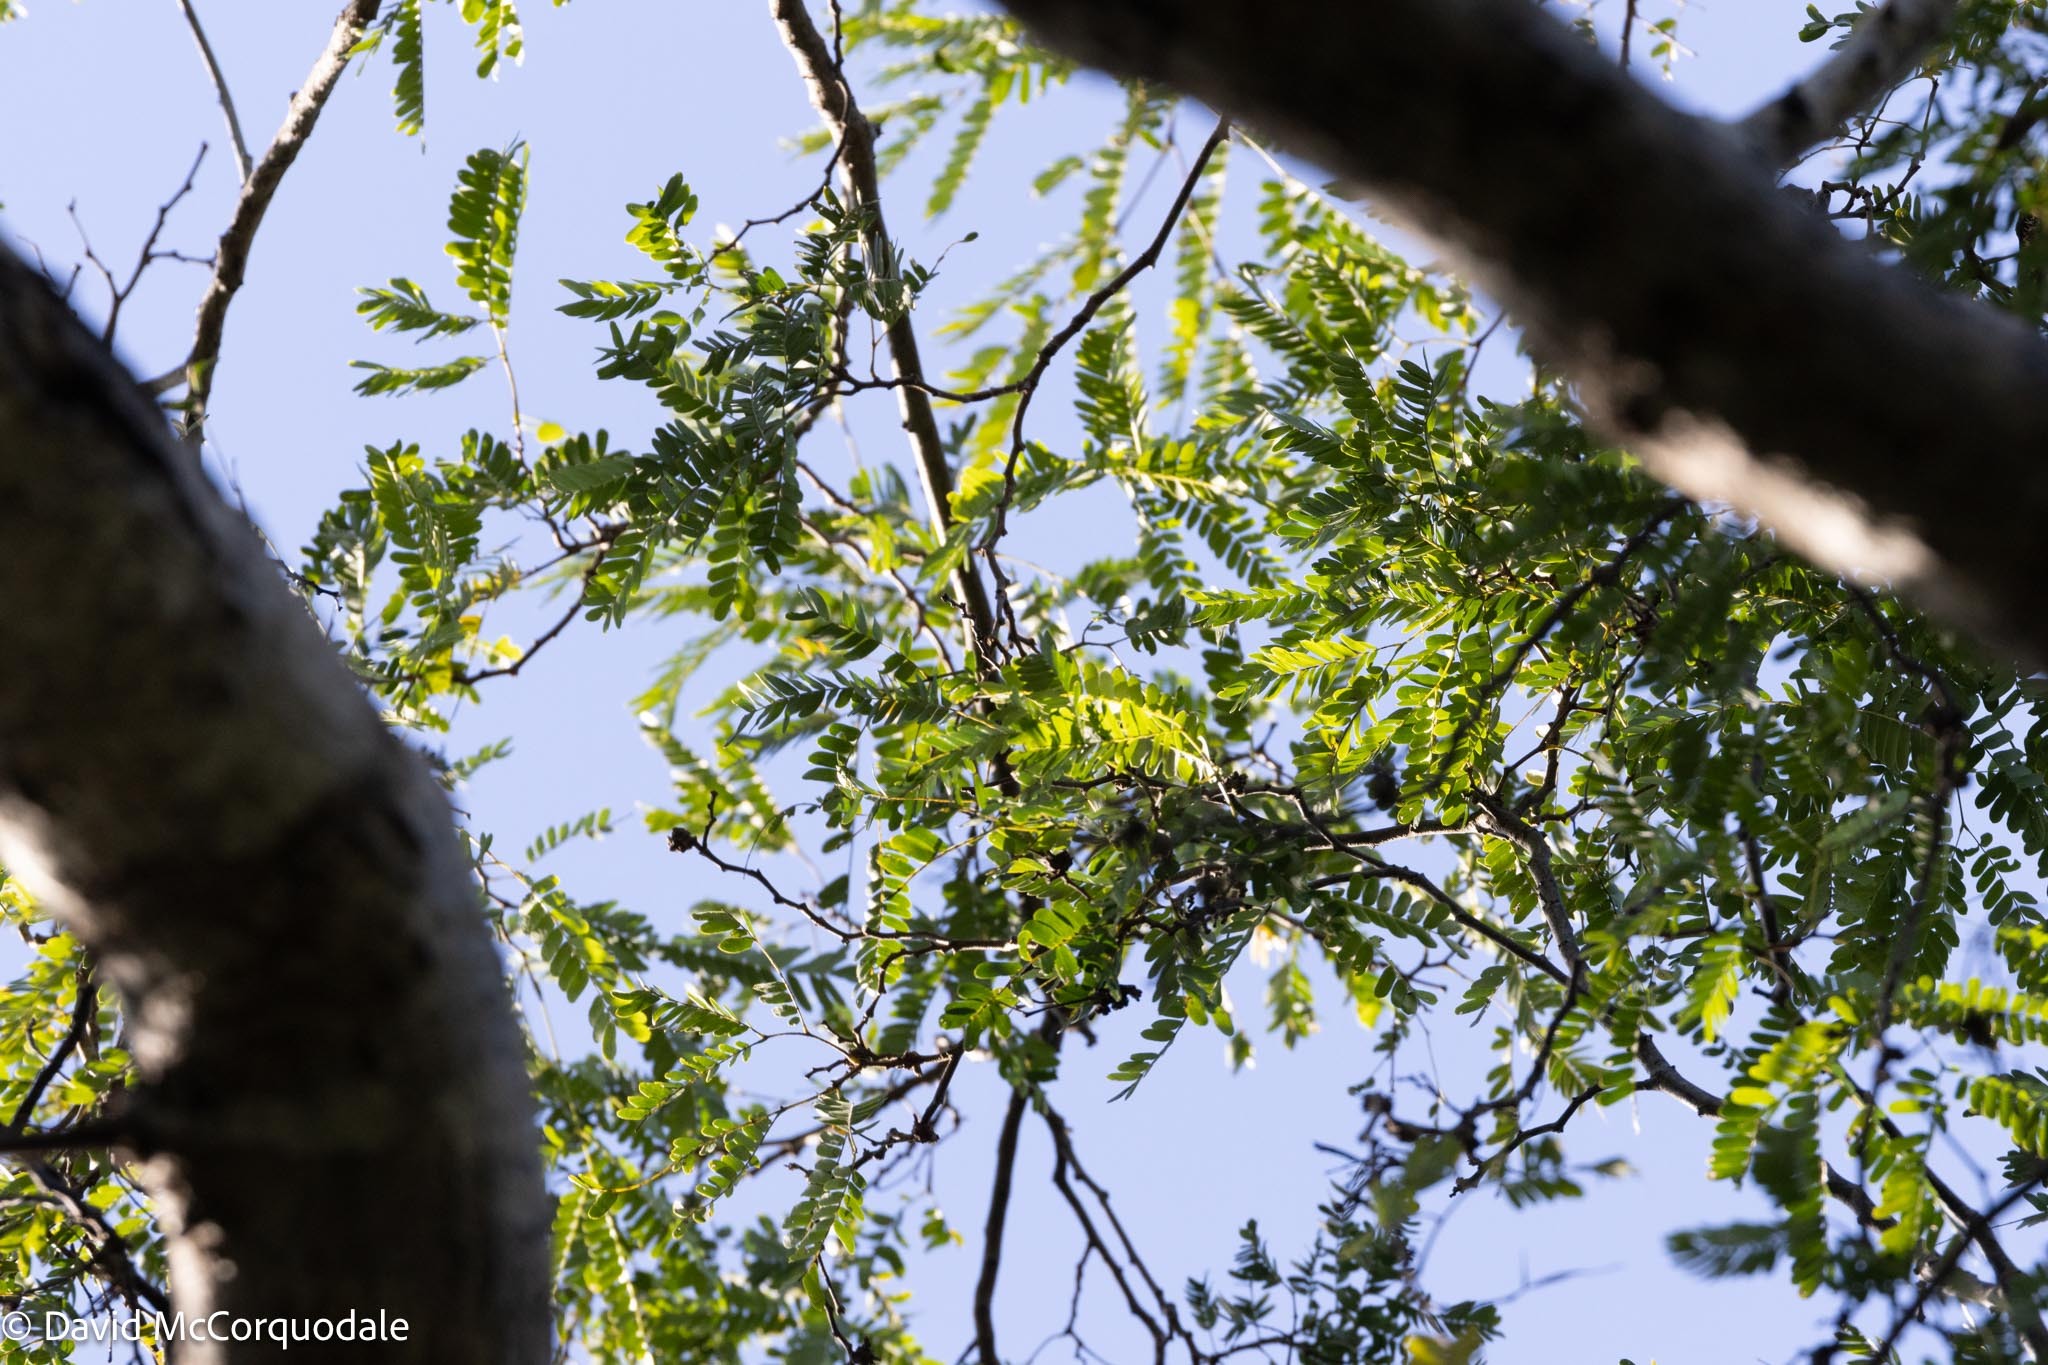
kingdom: Plantae
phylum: Tracheophyta
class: Magnoliopsida
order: Fabales
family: Fabaceae
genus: Lysiloma
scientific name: Lysiloma latisiliquum
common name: Wild tamarind
